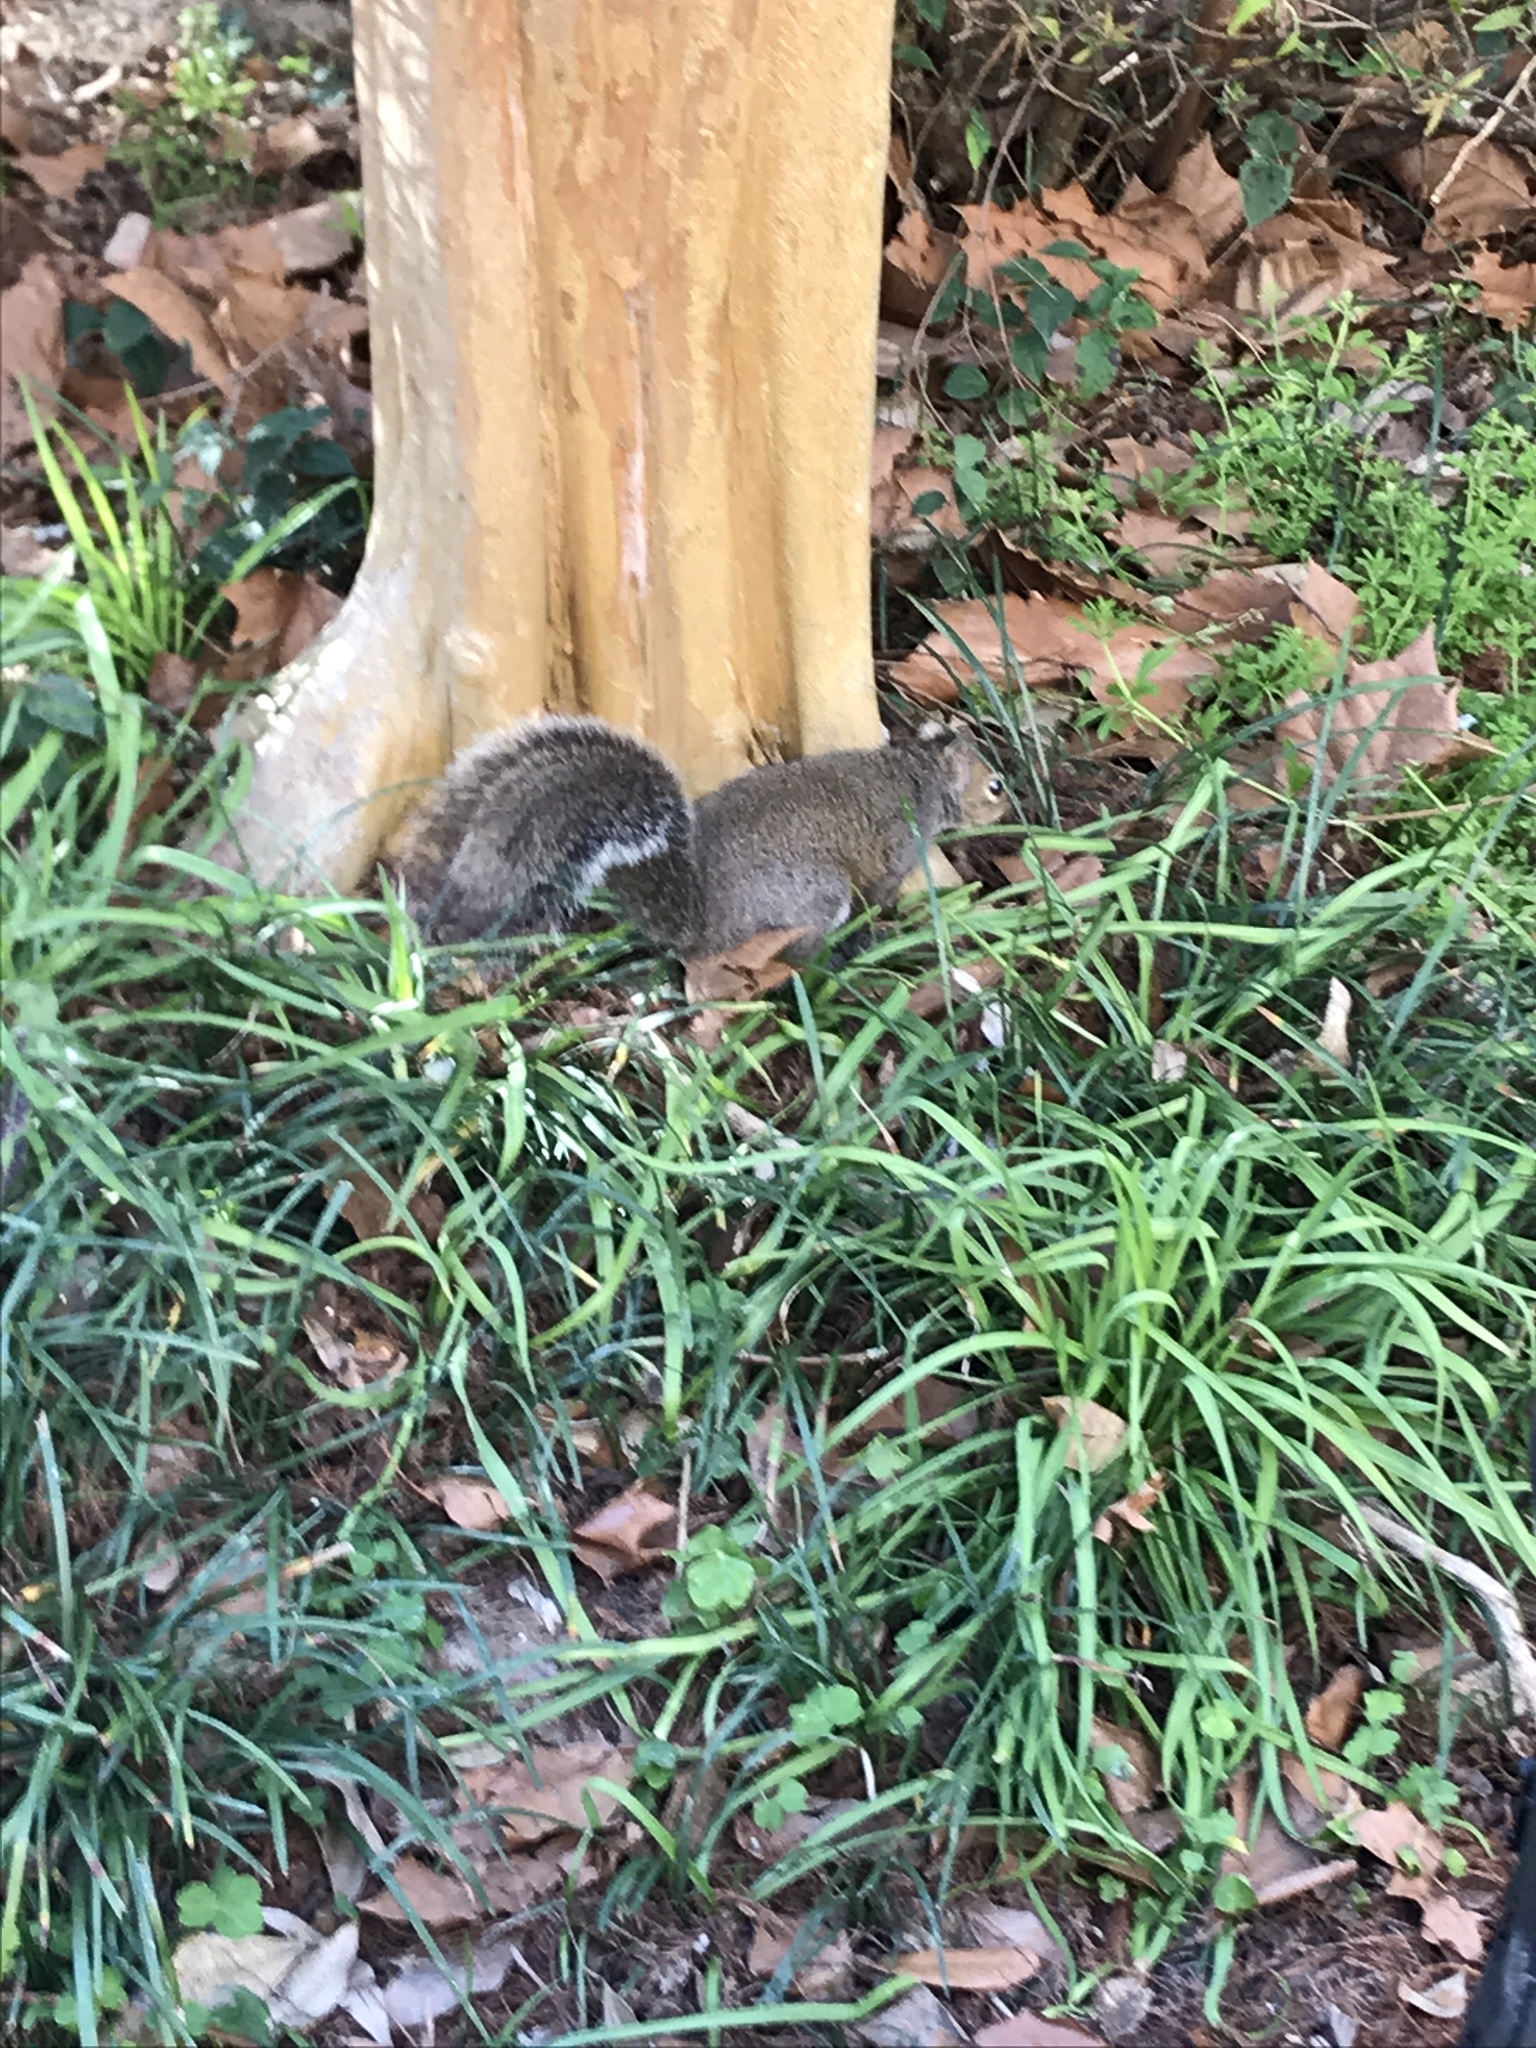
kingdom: Animalia
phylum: Chordata
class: Mammalia
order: Rodentia
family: Sciuridae
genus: Sciurus
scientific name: Sciurus carolinensis
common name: Eastern gray squirrel
